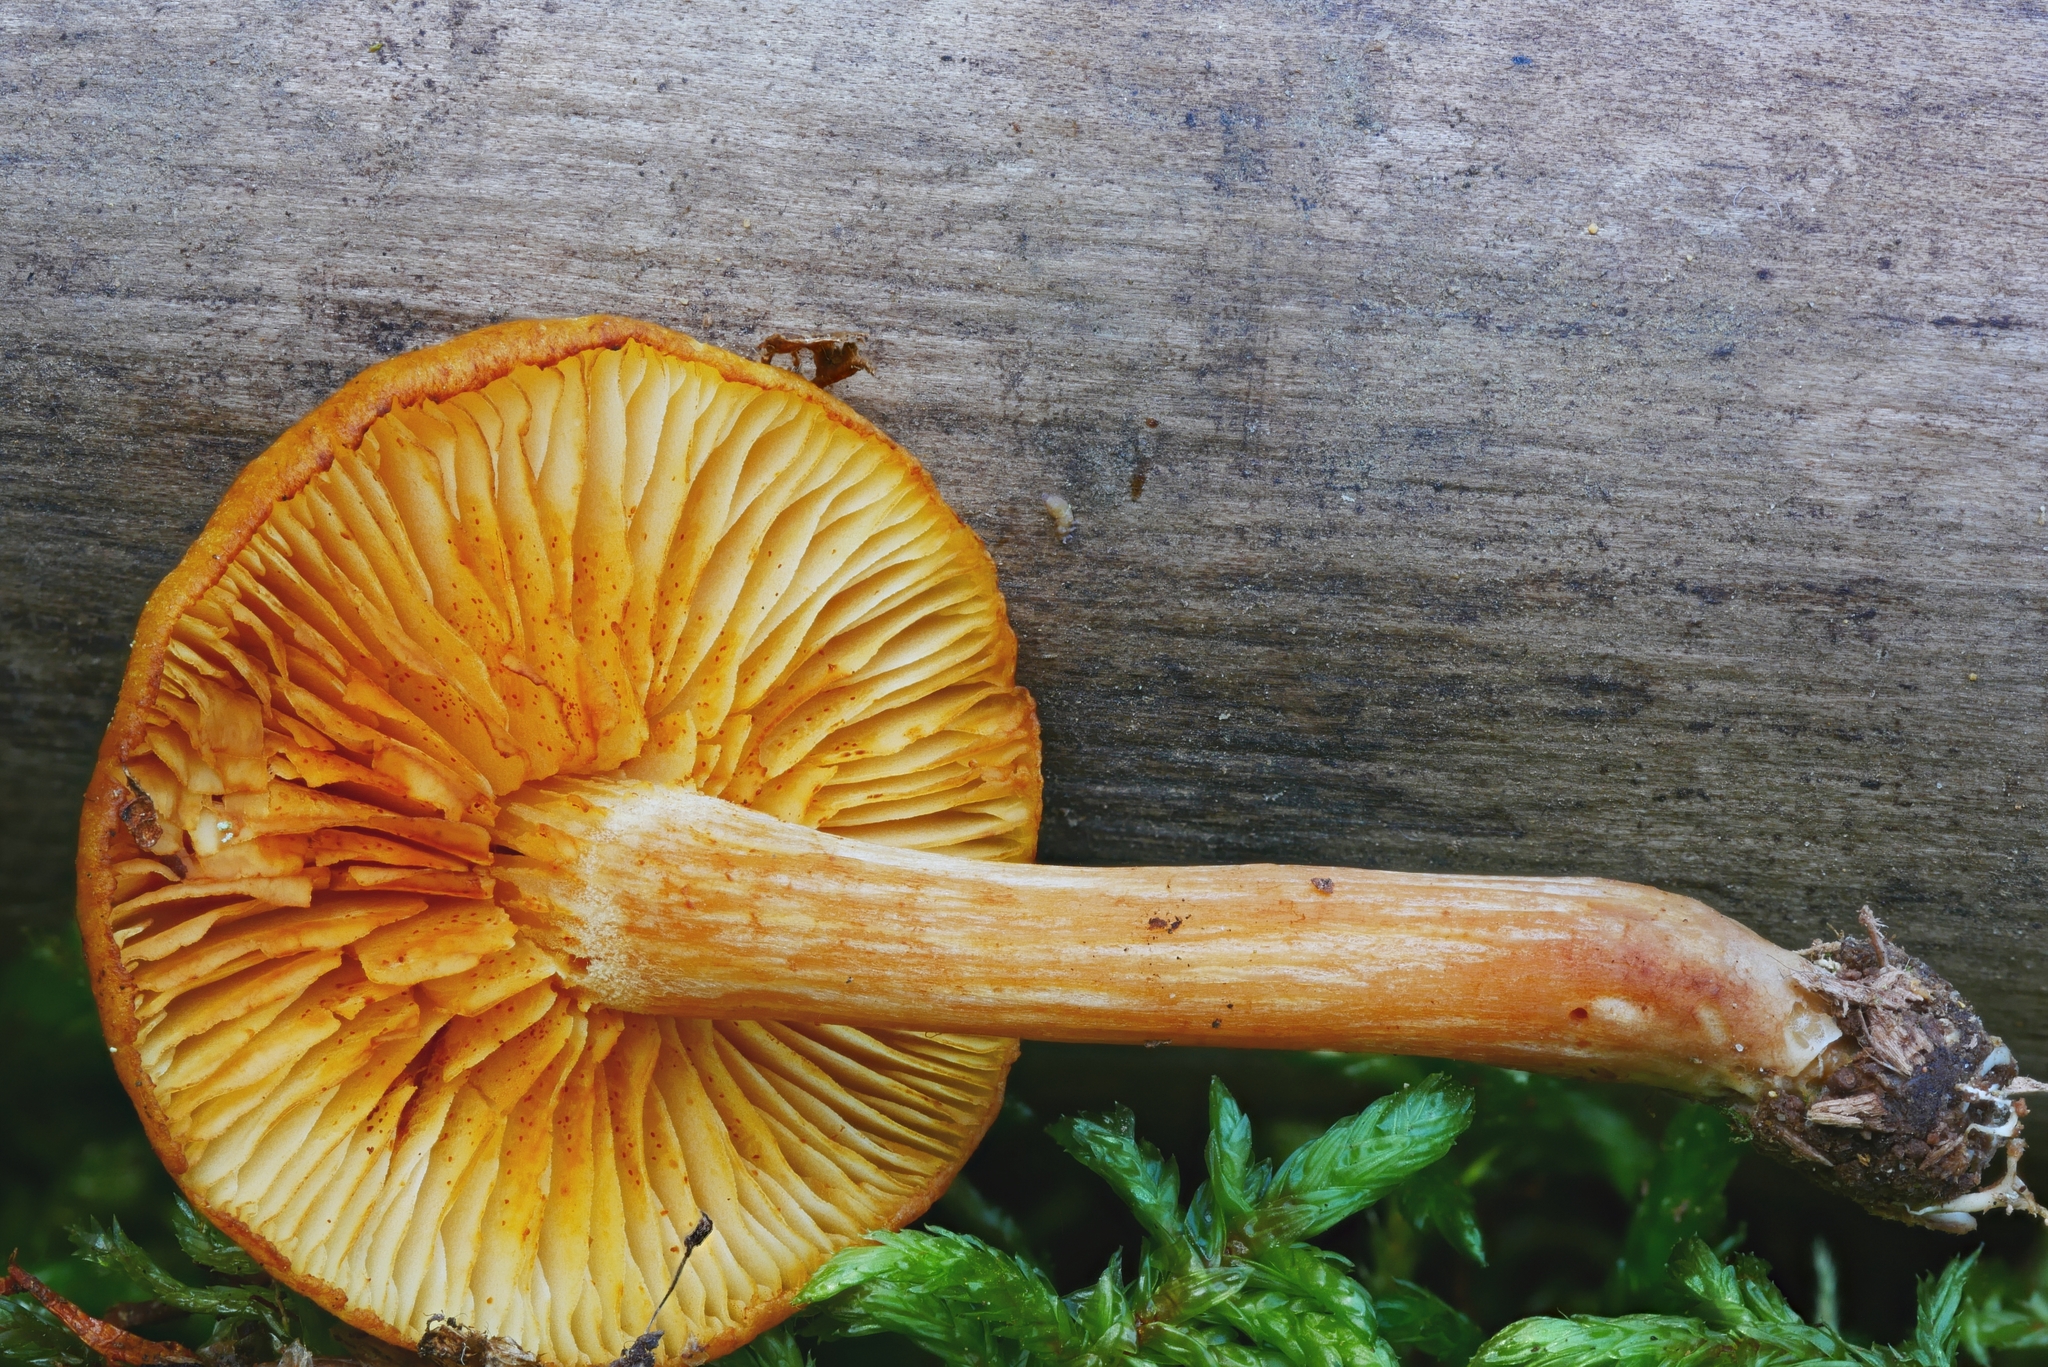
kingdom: Fungi
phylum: Basidiomycota
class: Agaricomycetes
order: Agaricales
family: Hymenogastraceae
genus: Gymnopilus
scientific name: Gymnopilus flavidellus
